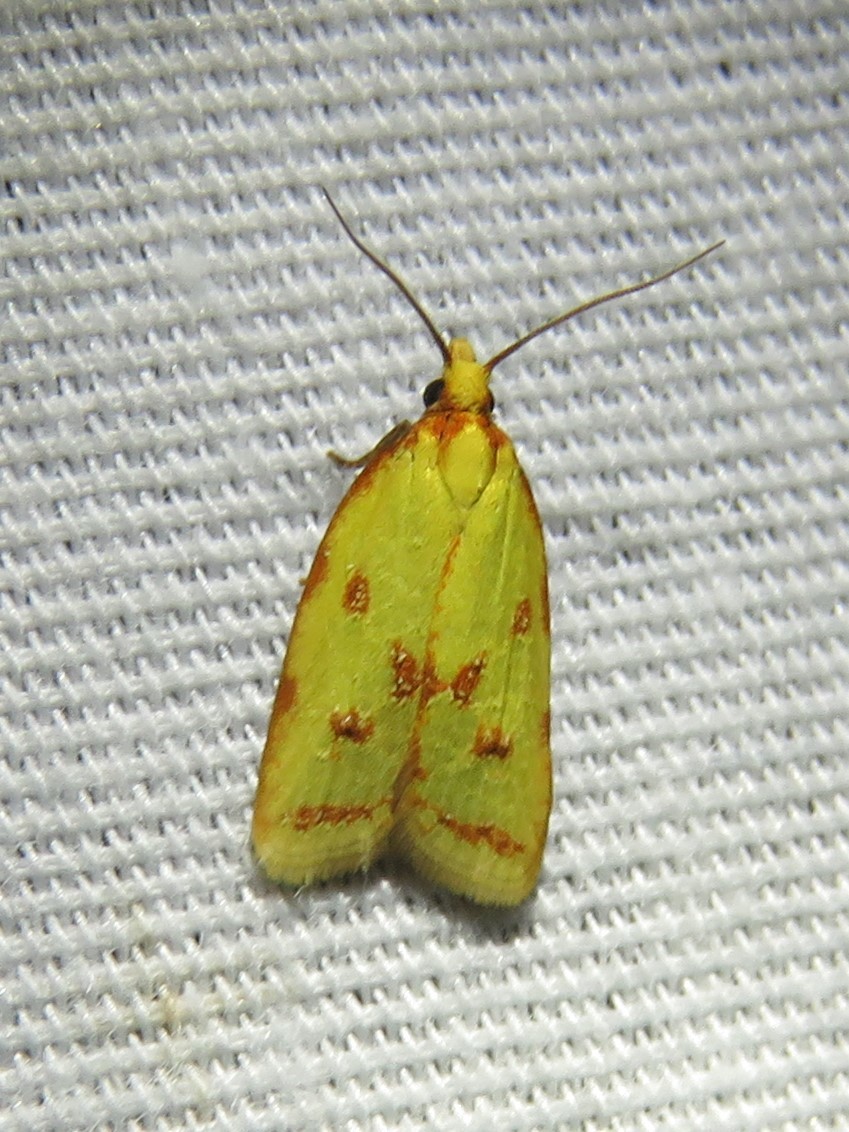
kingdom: Animalia
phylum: Arthropoda
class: Insecta
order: Lepidoptera
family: Tortricidae
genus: Sparganothis
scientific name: Sparganothis sulfureana
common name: Sparganothis fruitworm moth
